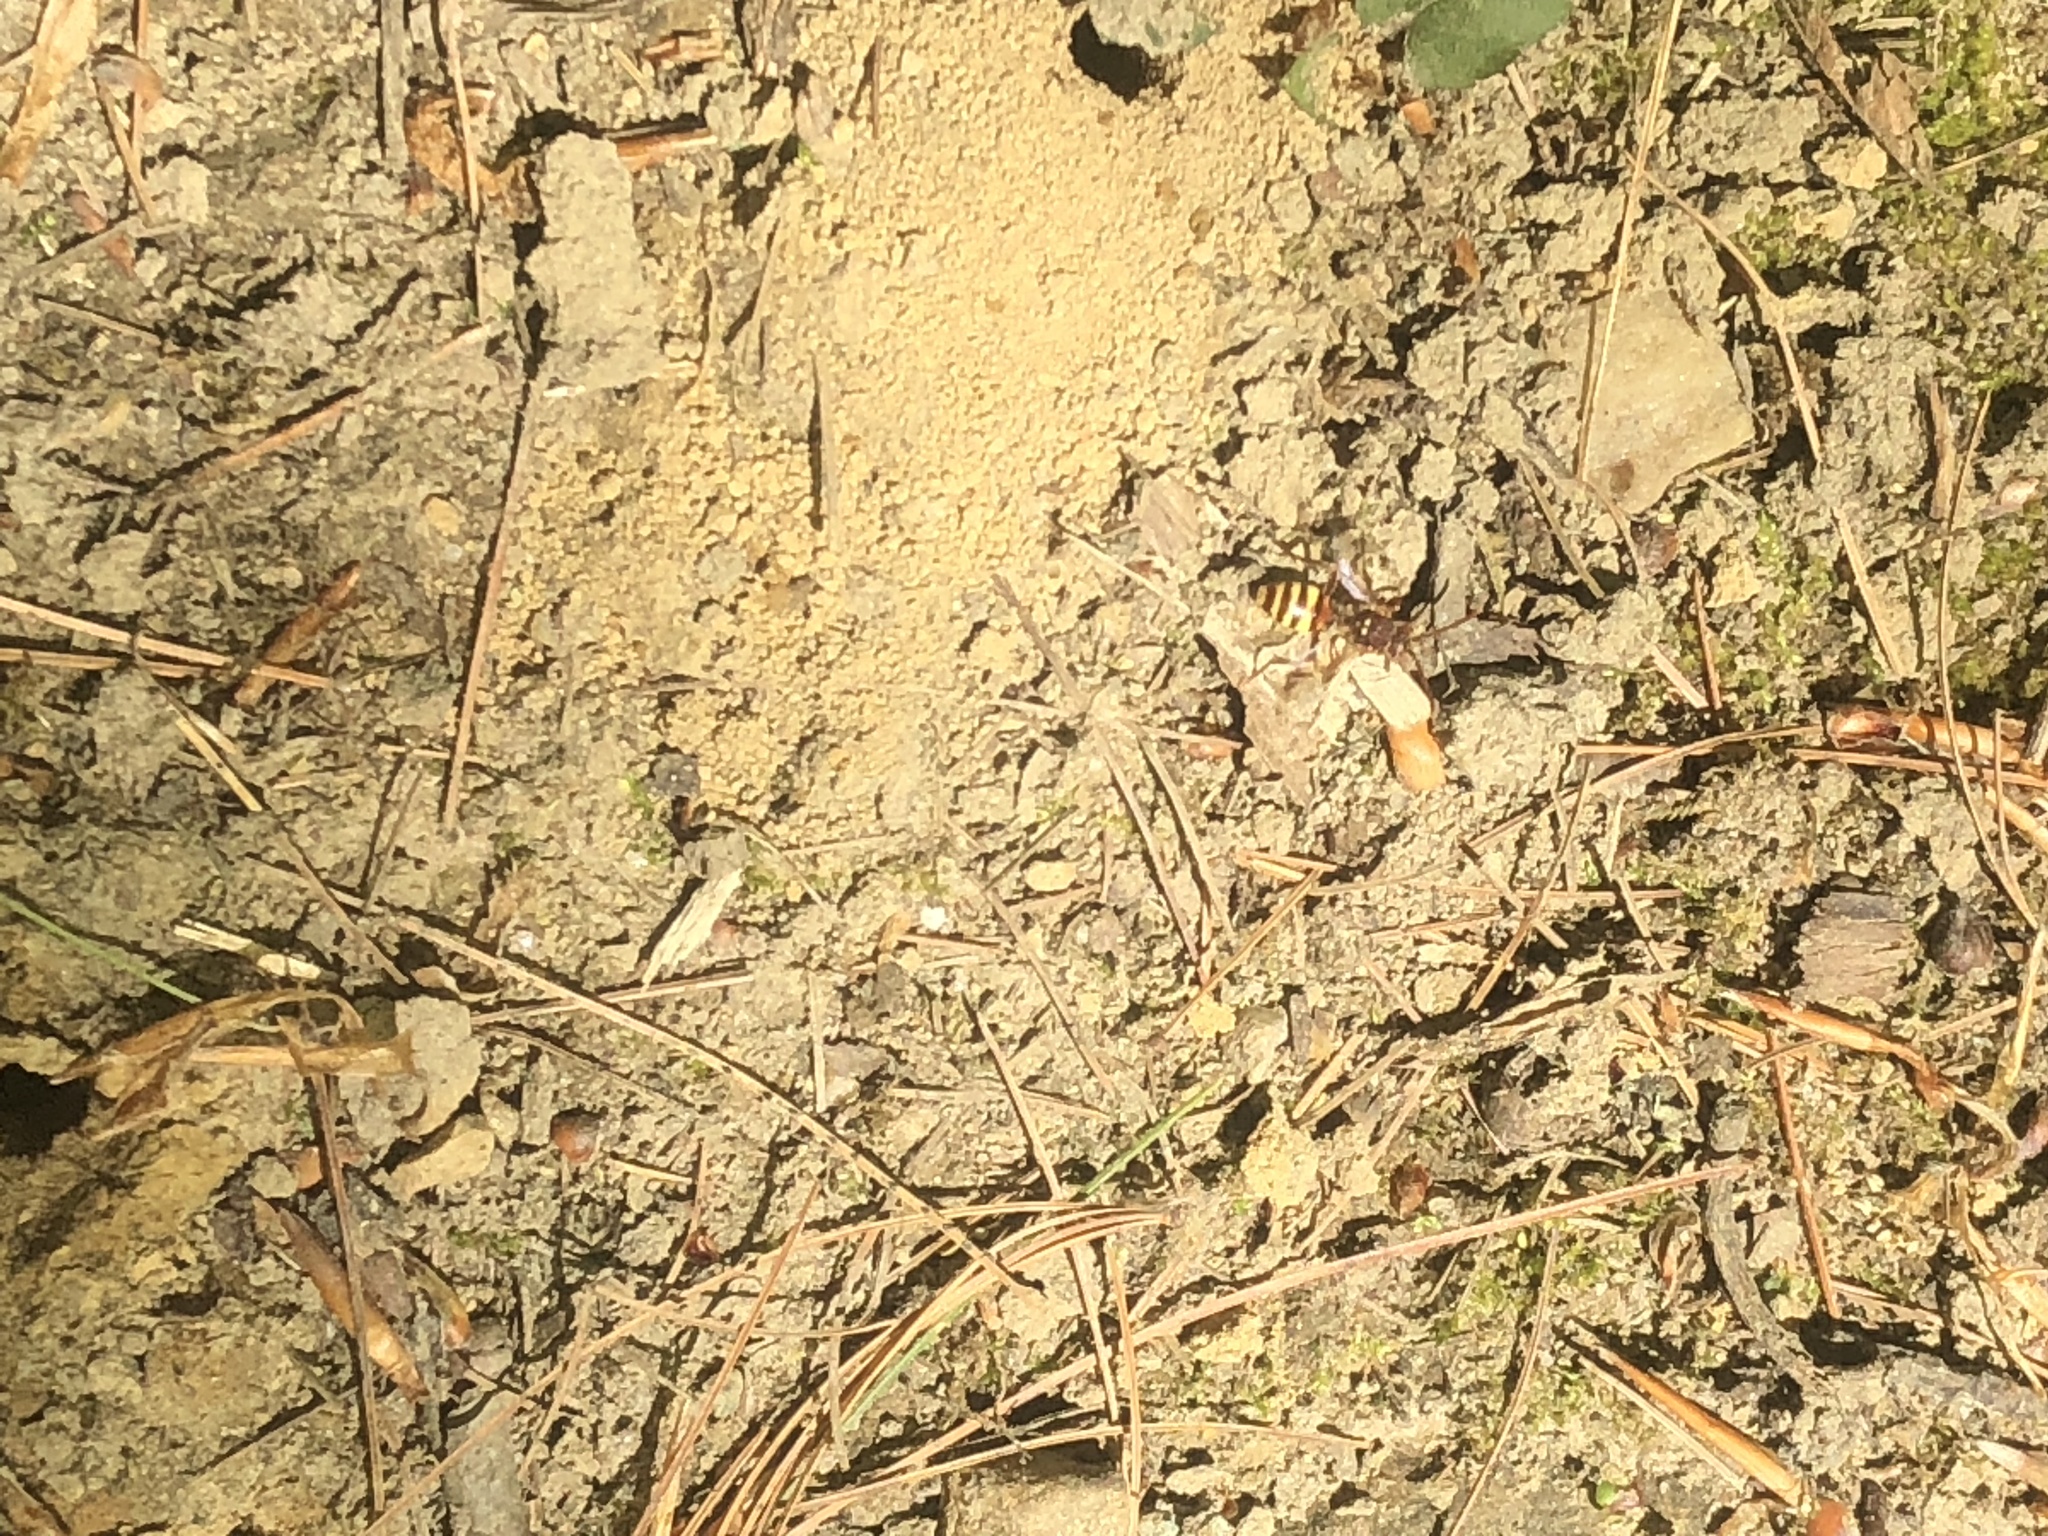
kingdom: Animalia
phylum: Arthropoda
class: Insecta
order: Hymenoptera
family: Apidae
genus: Nomada
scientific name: Nomada imbricata
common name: Imbricate cuckoo nomad bee
